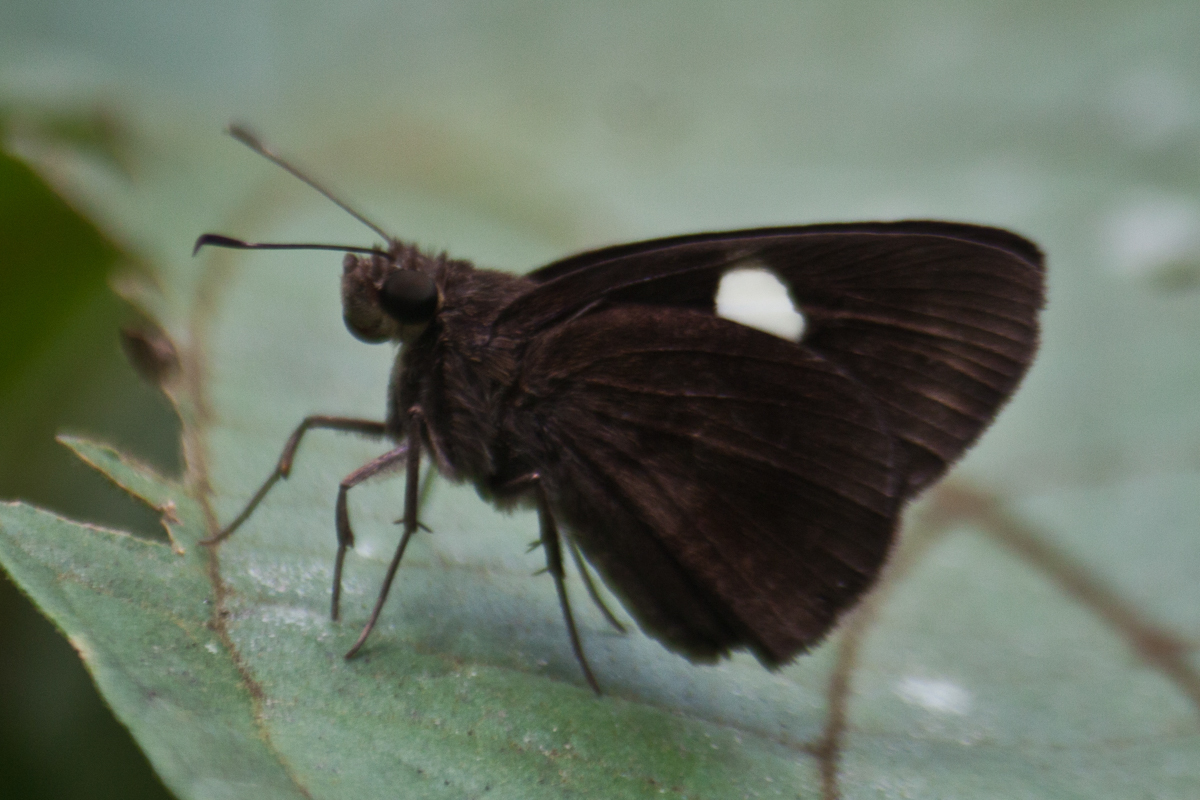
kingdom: Animalia
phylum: Arthropoda
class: Insecta
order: Lepidoptera
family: Hesperiidae
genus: Notocrypta
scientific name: Notocrypta paralysos
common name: Common banded demon
